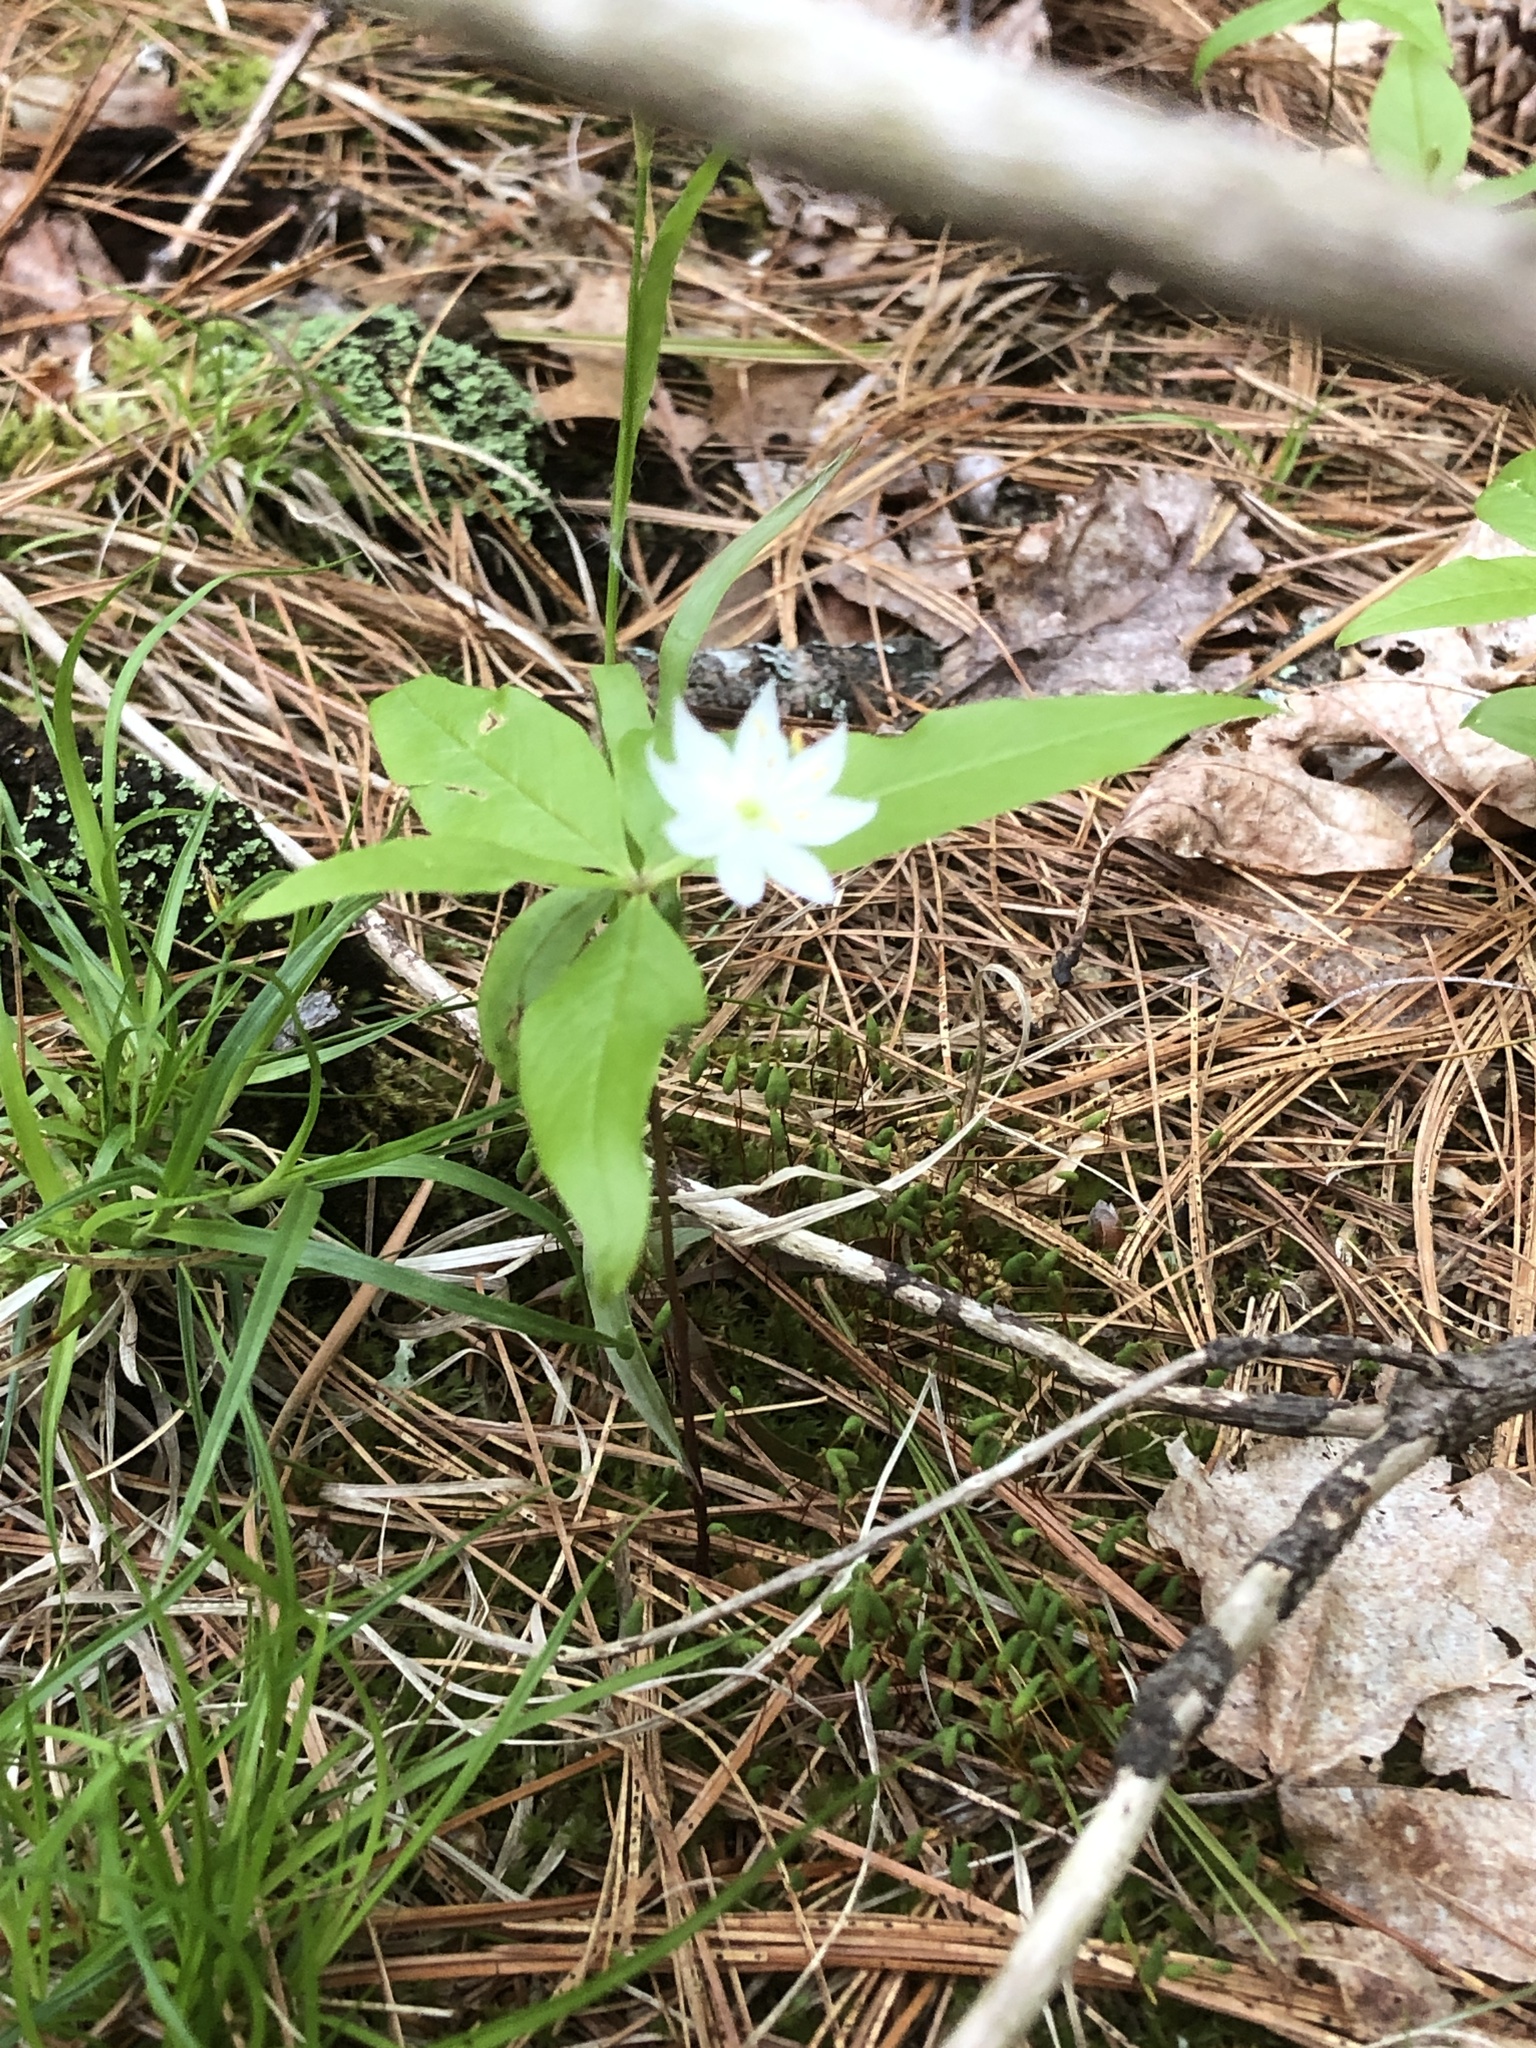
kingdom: Plantae
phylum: Tracheophyta
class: Magnoliopsida
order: Ericales
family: Primulaceae
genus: Lysimachia
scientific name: Lysimachia borealis
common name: American starflower
